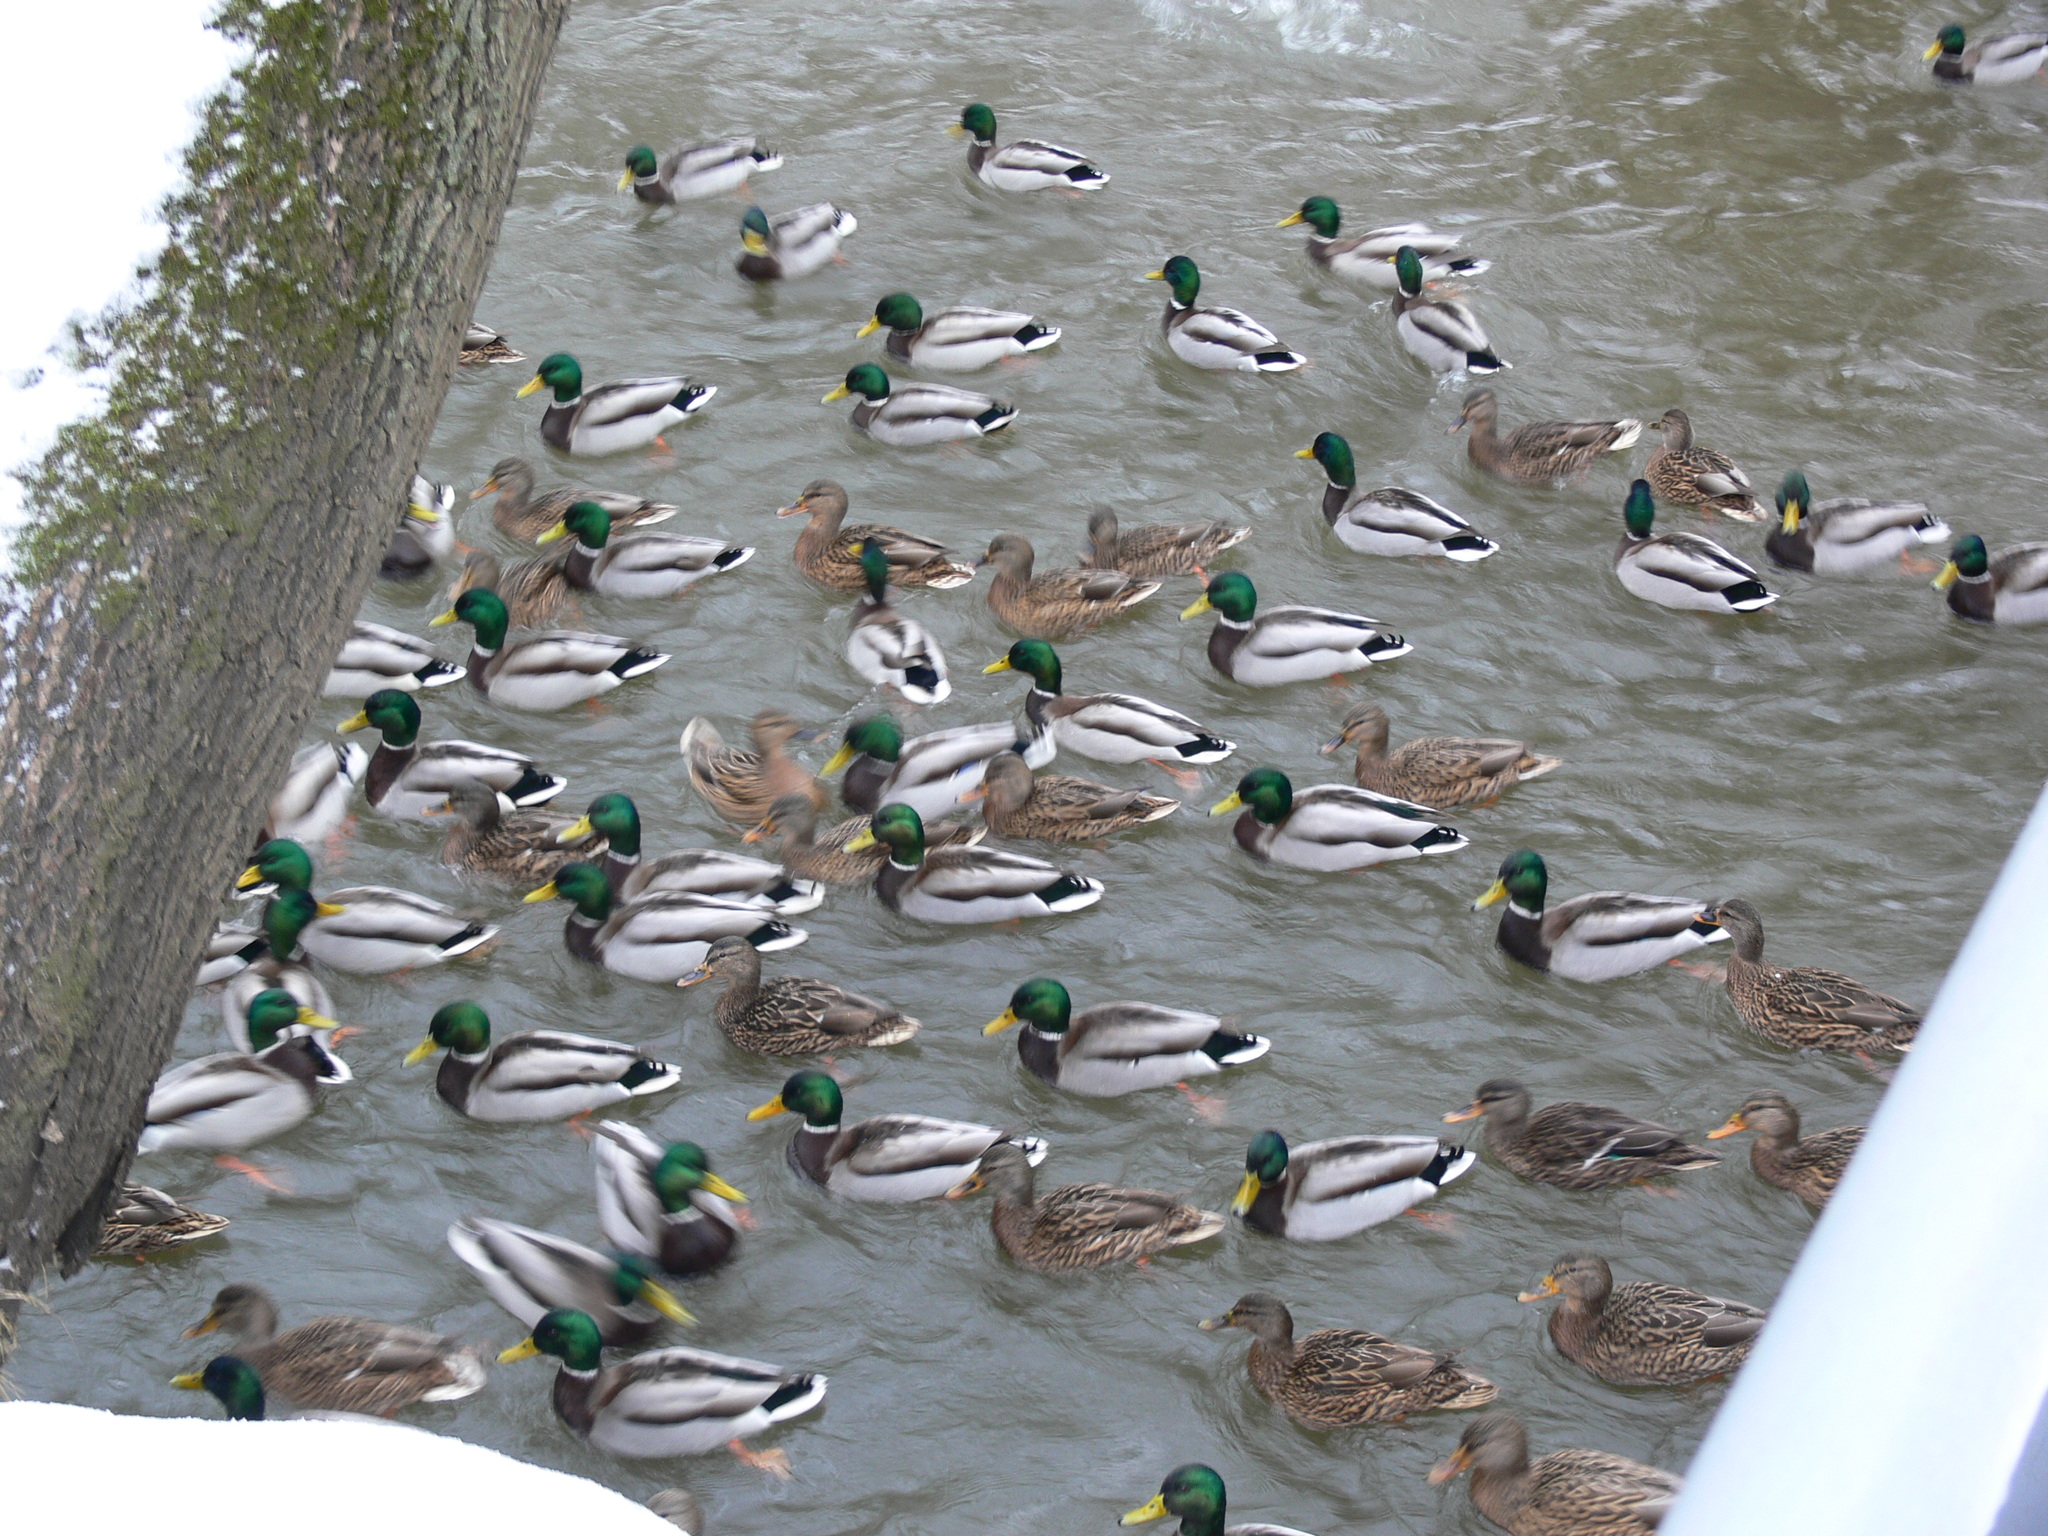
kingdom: Animalia
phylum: Chordata
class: Aves
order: Anseriformes
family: Anatidae
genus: Anas
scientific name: Anas platyrhynchos
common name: Mallard
